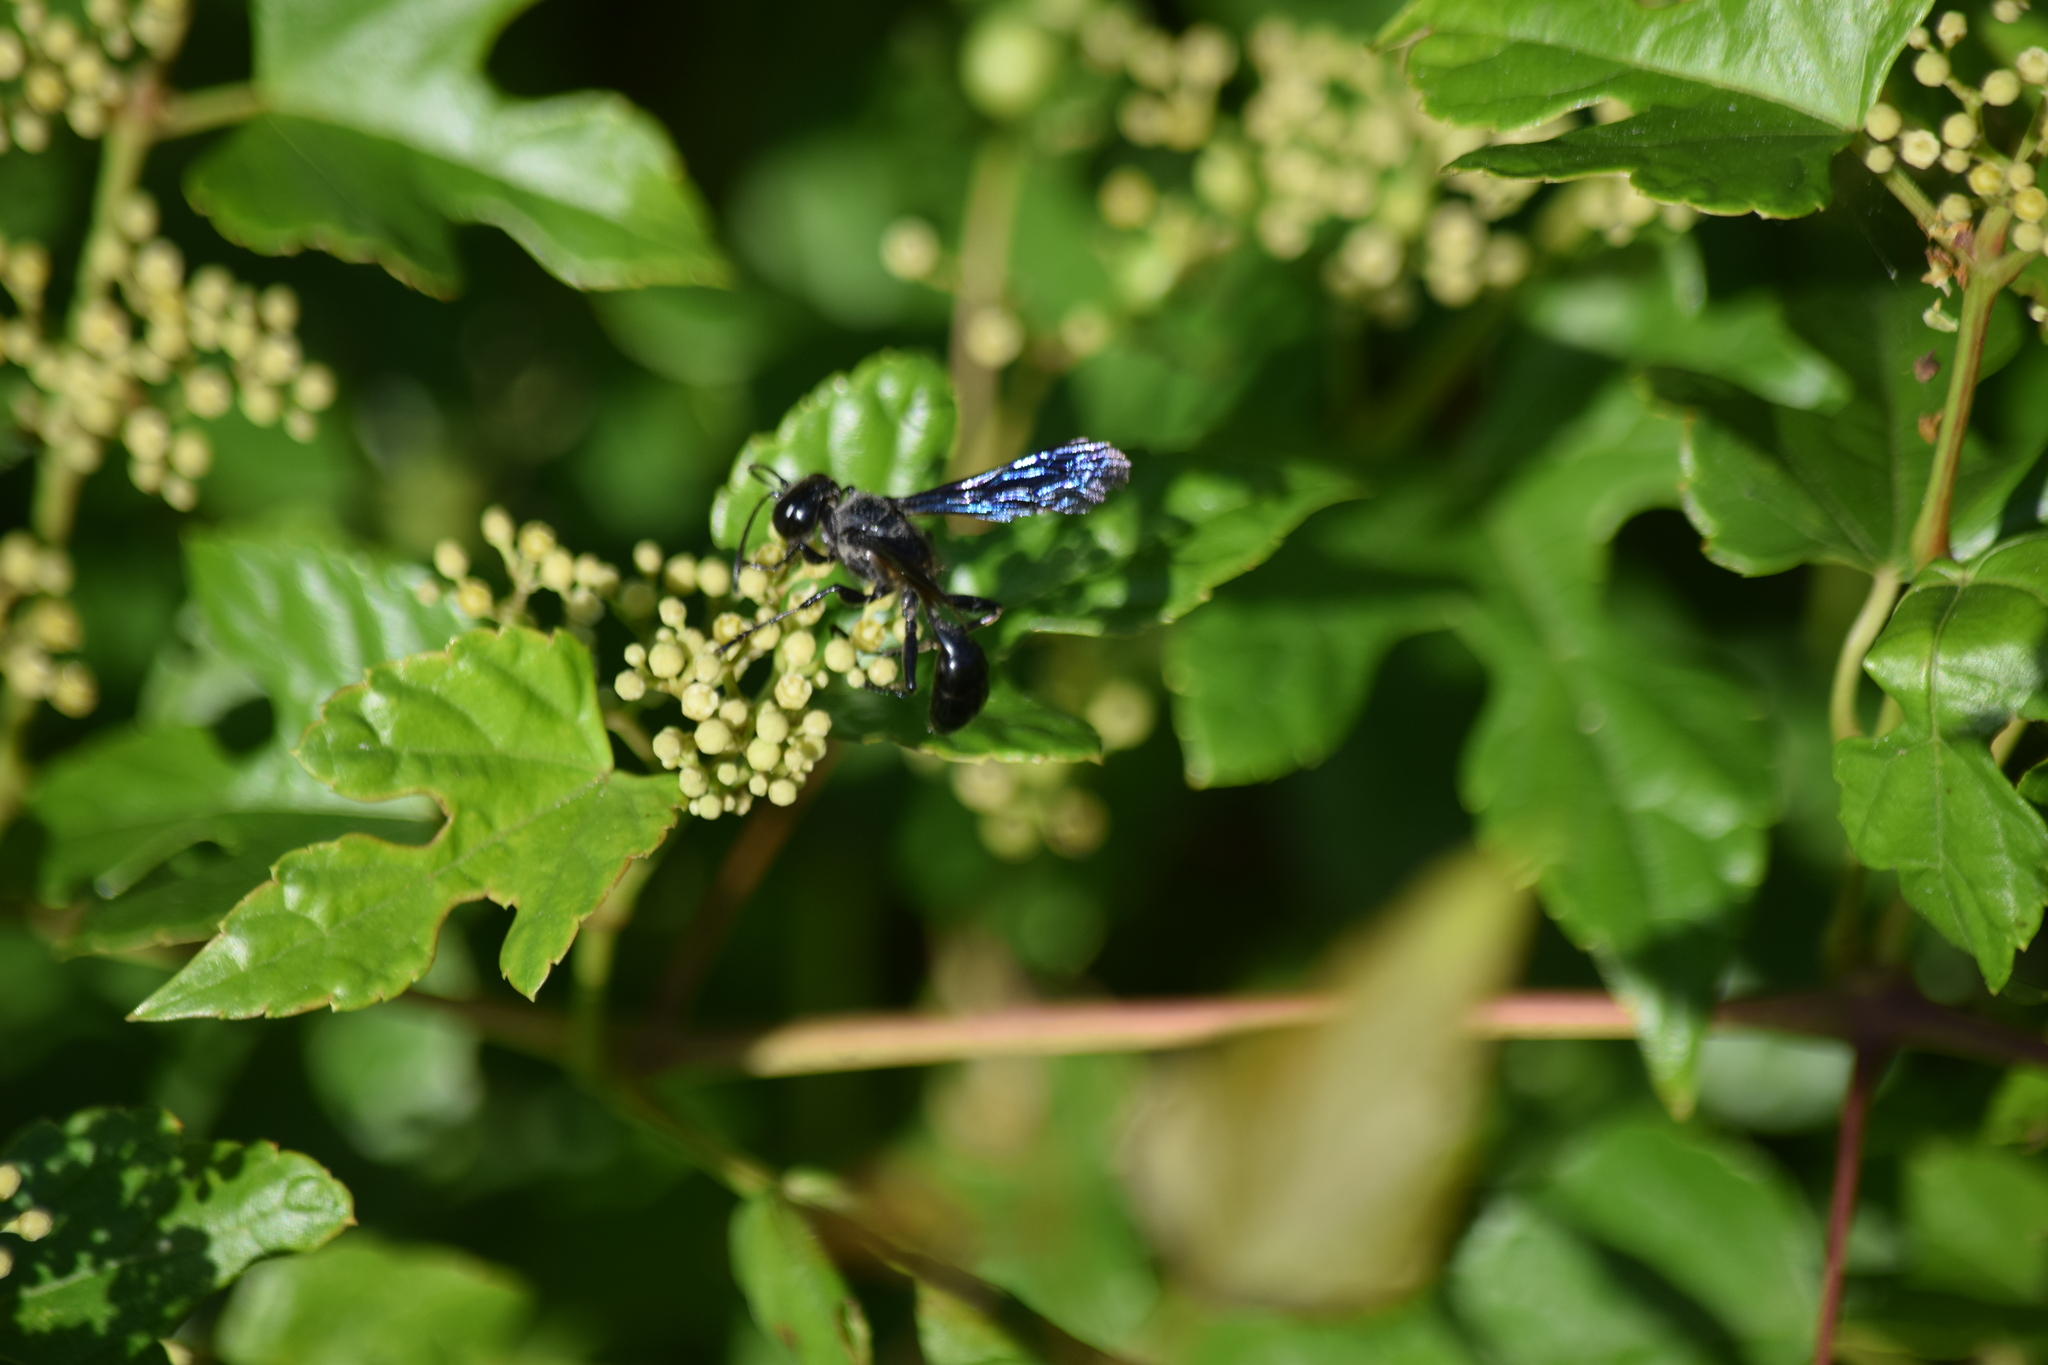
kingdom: Animalia
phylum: Arthropoda
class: Insecta
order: Hymenoptera
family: Sphecidae
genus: Isodontia
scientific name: Isodontia philadelphica
